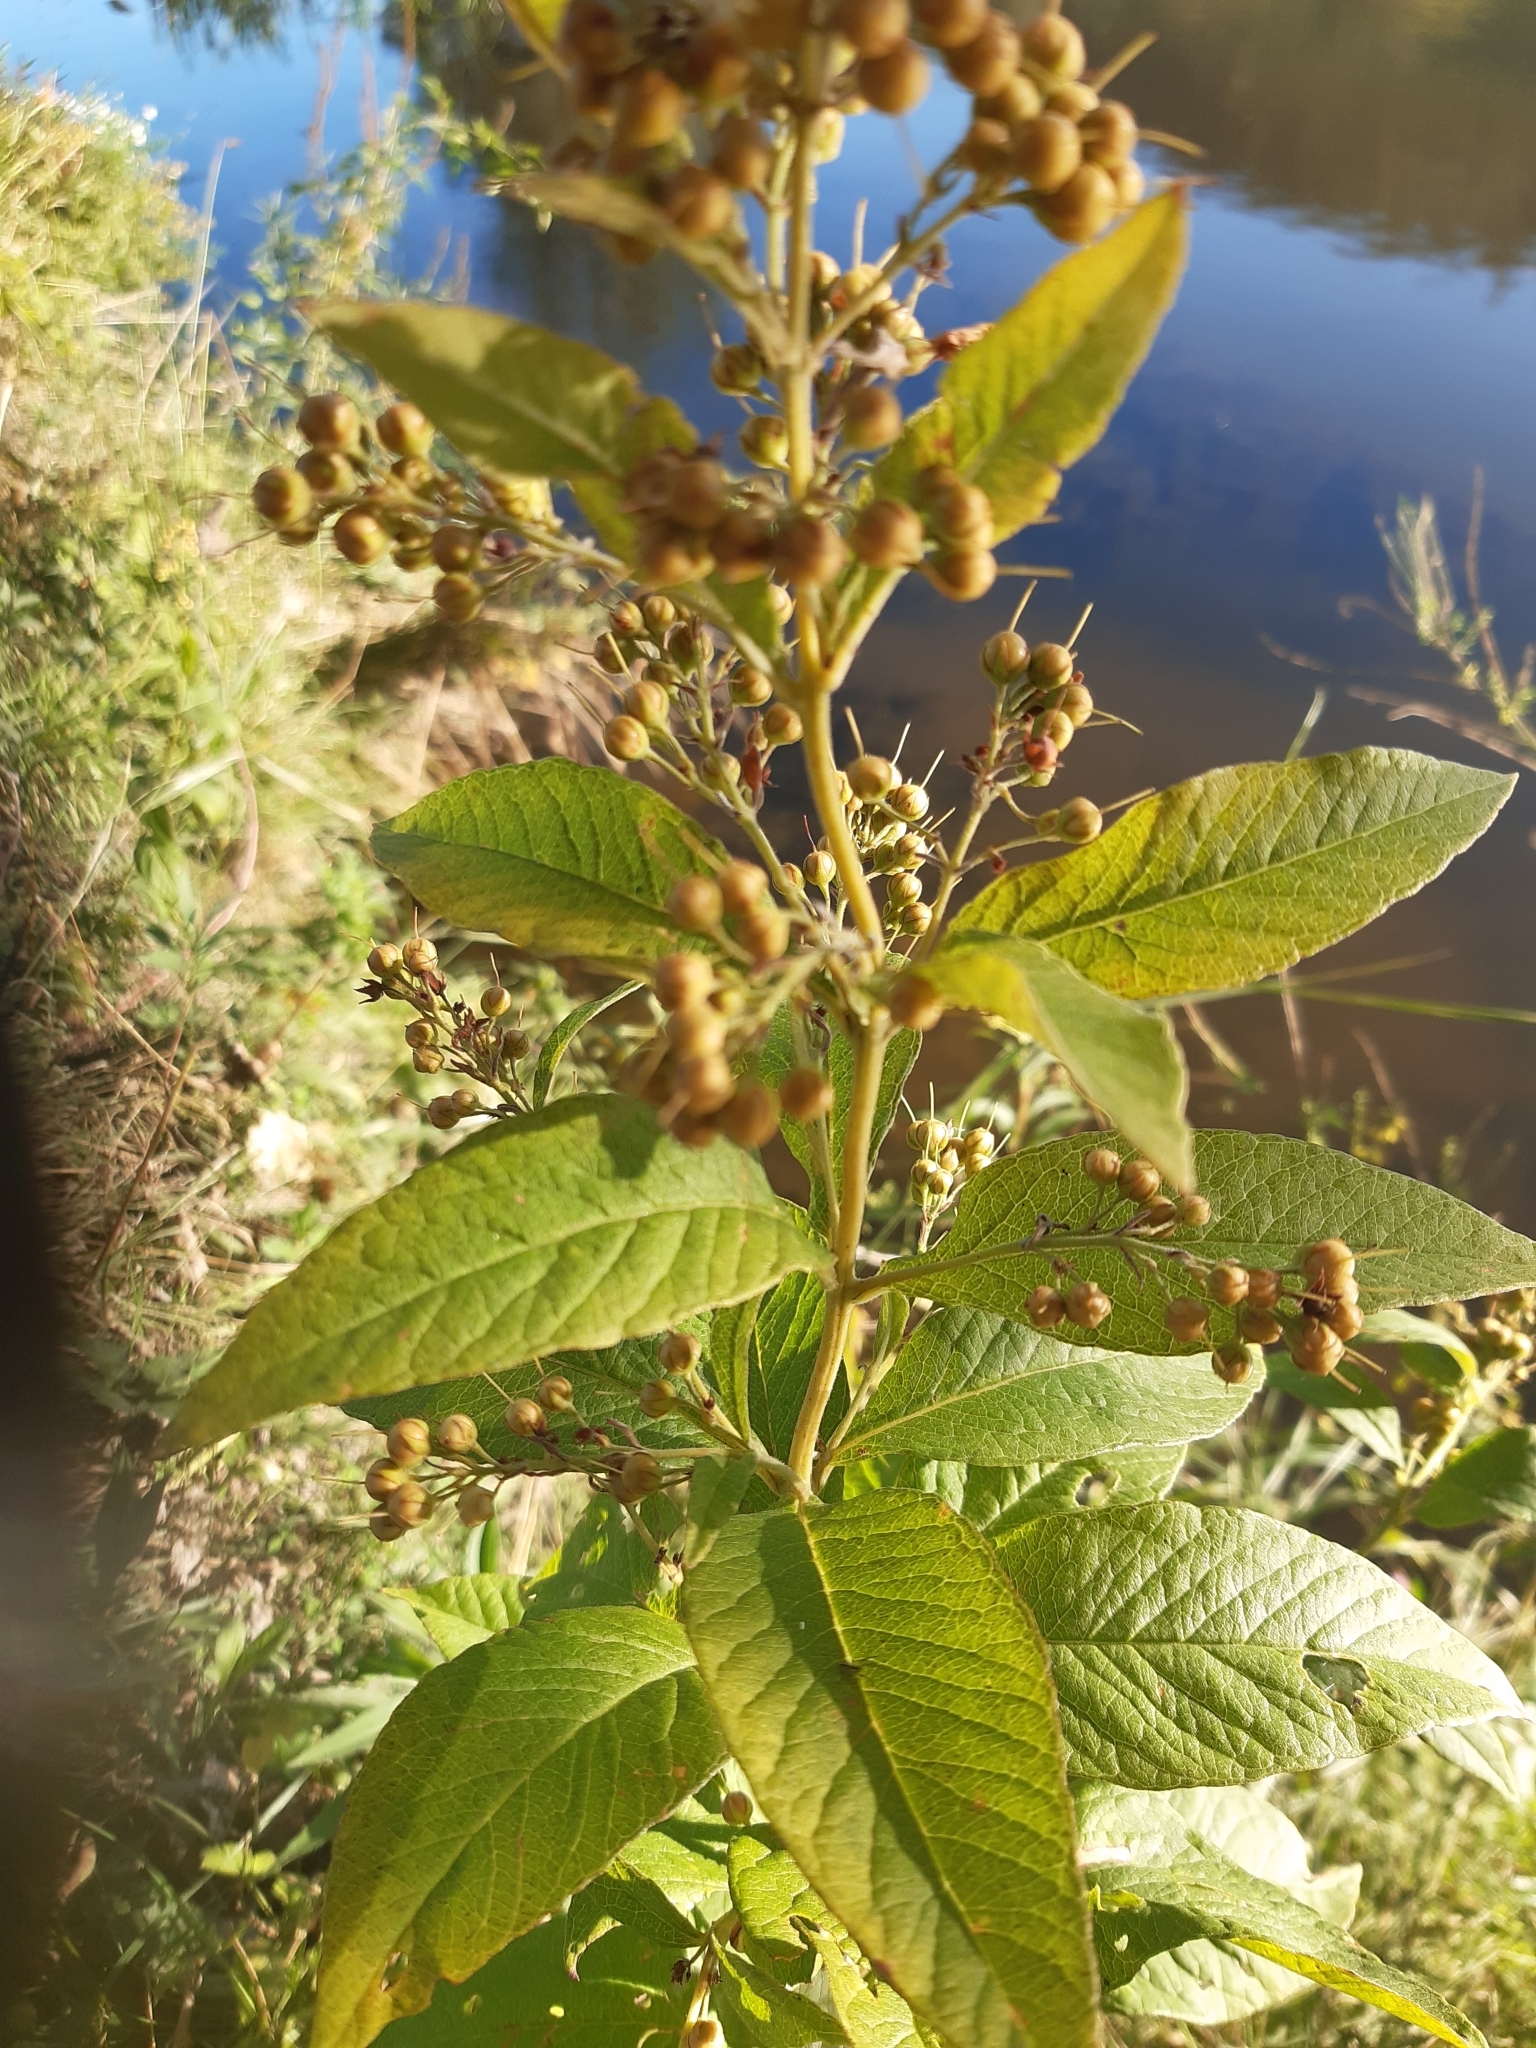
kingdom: Plantae
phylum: Tracheophyta
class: Magnoliopsida
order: Ericales
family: Primulaceae
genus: Lysimachia
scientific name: Lysimachia vulgaris
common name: Yellow loosestrife
